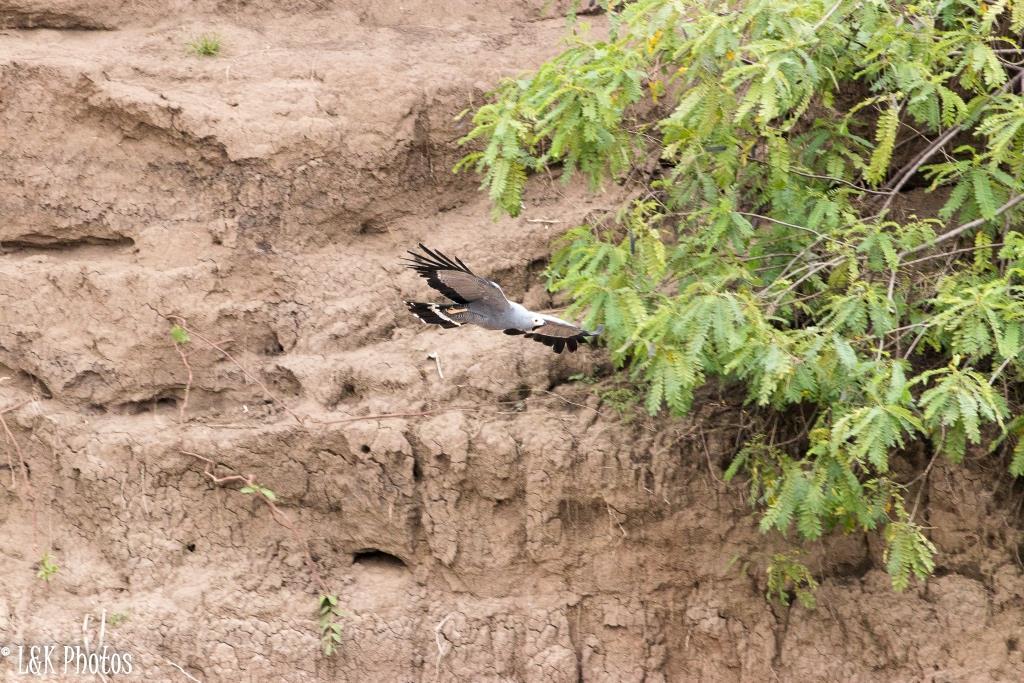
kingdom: Animalia
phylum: Chordata
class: Aves
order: Accipitriformes
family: Accipitridae
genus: Polyboroides
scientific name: Polyboroides typus
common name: African harrier-hawk
